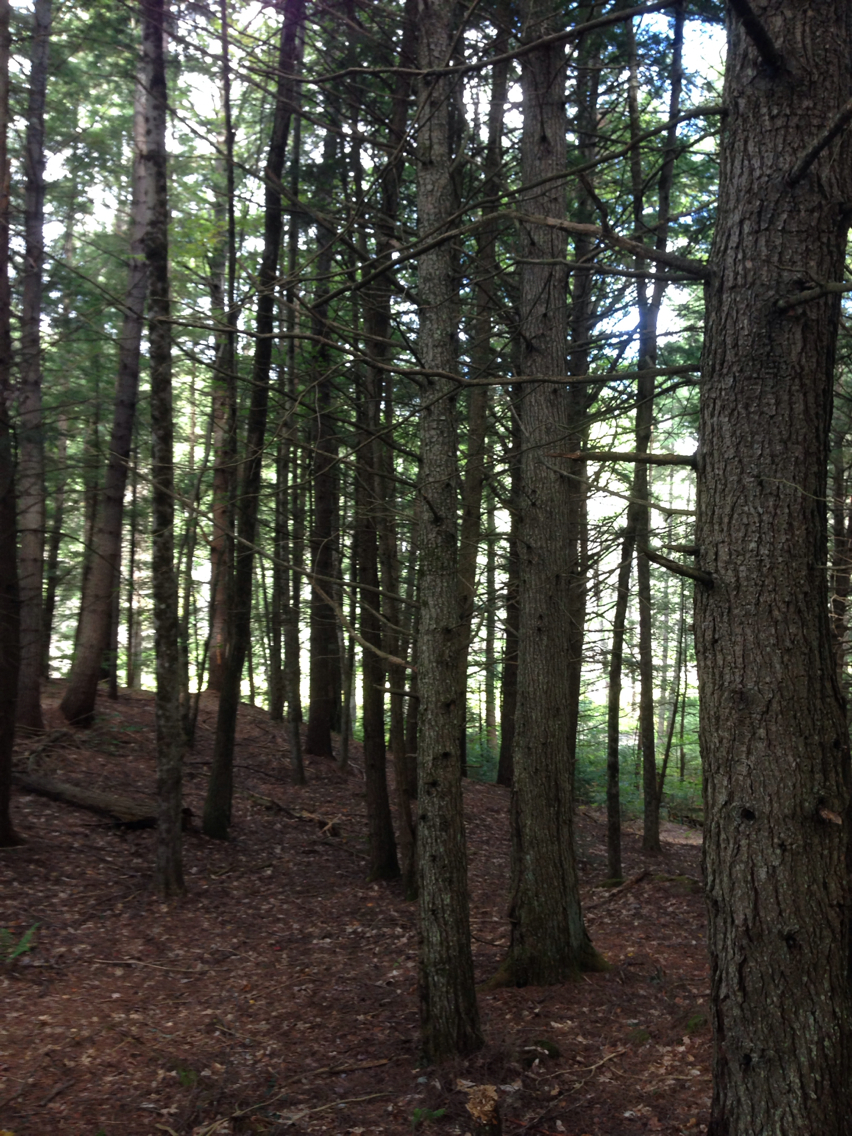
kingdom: Plantae
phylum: Tracheophyta
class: Pinopsida
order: Pinales
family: Pinaceae
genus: Tsuga
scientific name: Tsuga canadensis
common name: Eastern hemlock
